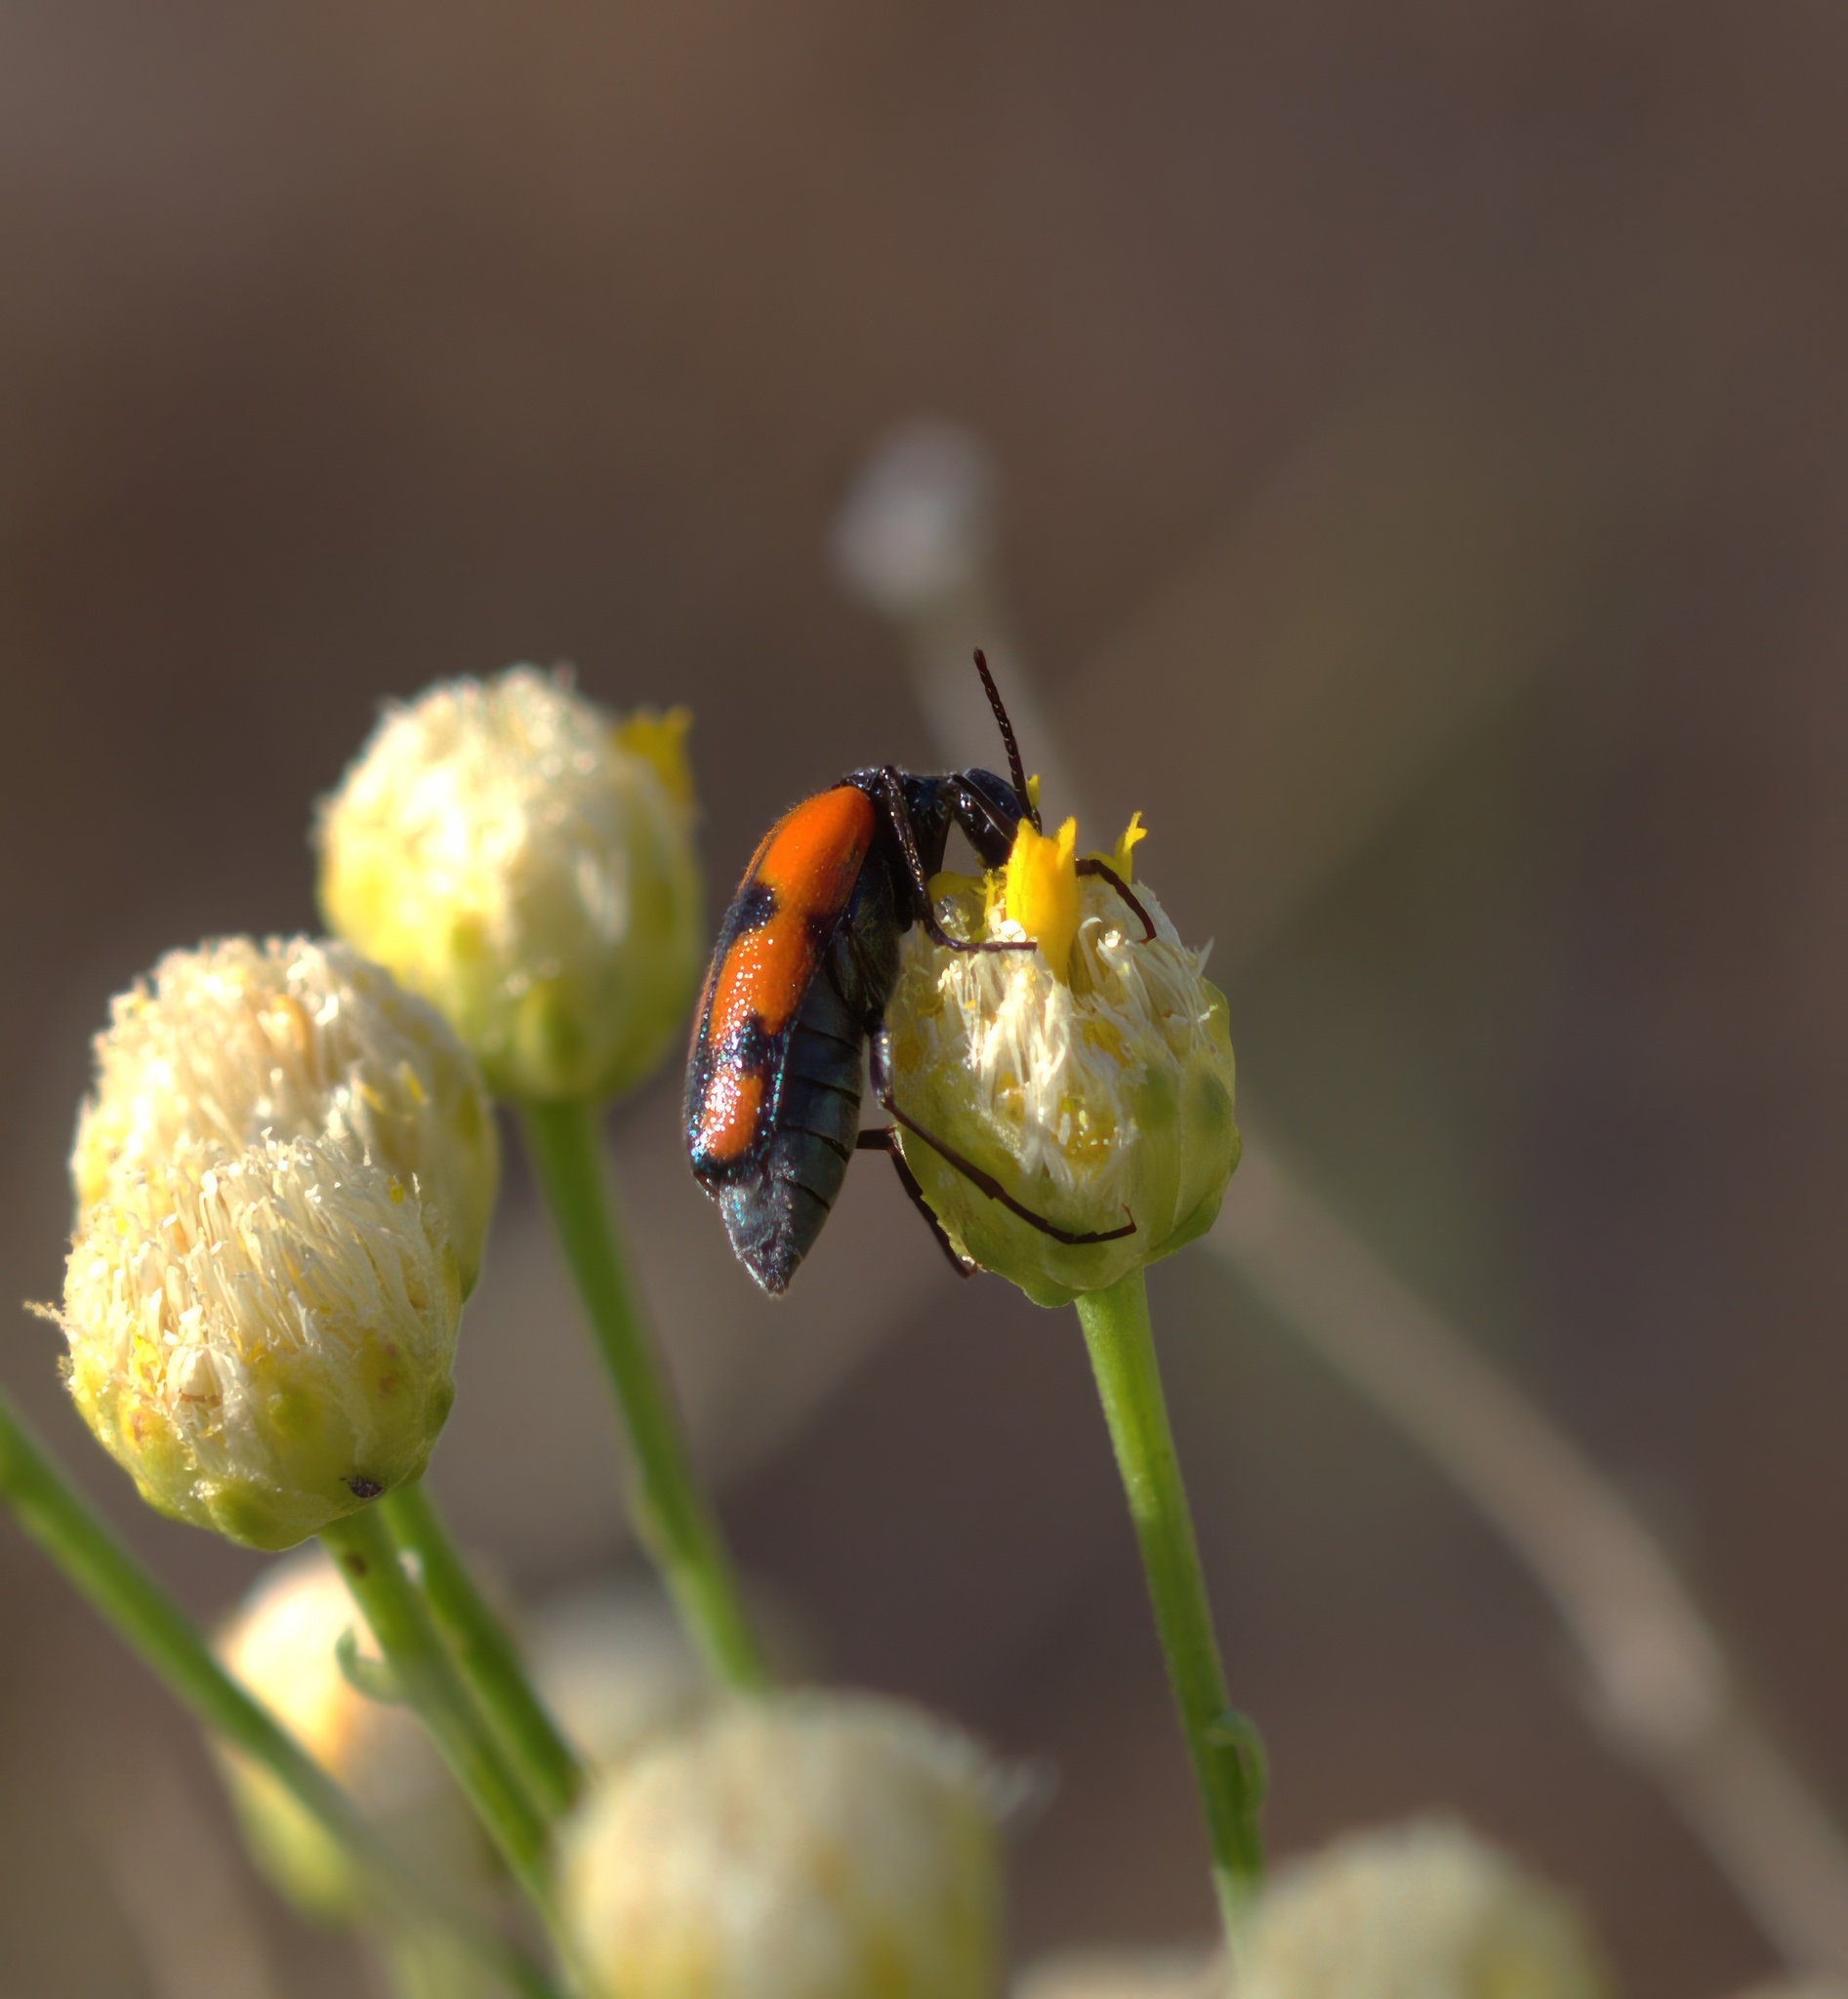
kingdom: Animalia
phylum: Arthropoda
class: Insecta
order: Coleoptera
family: Meloidae
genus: Eupompha
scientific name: Eupompha elegans
